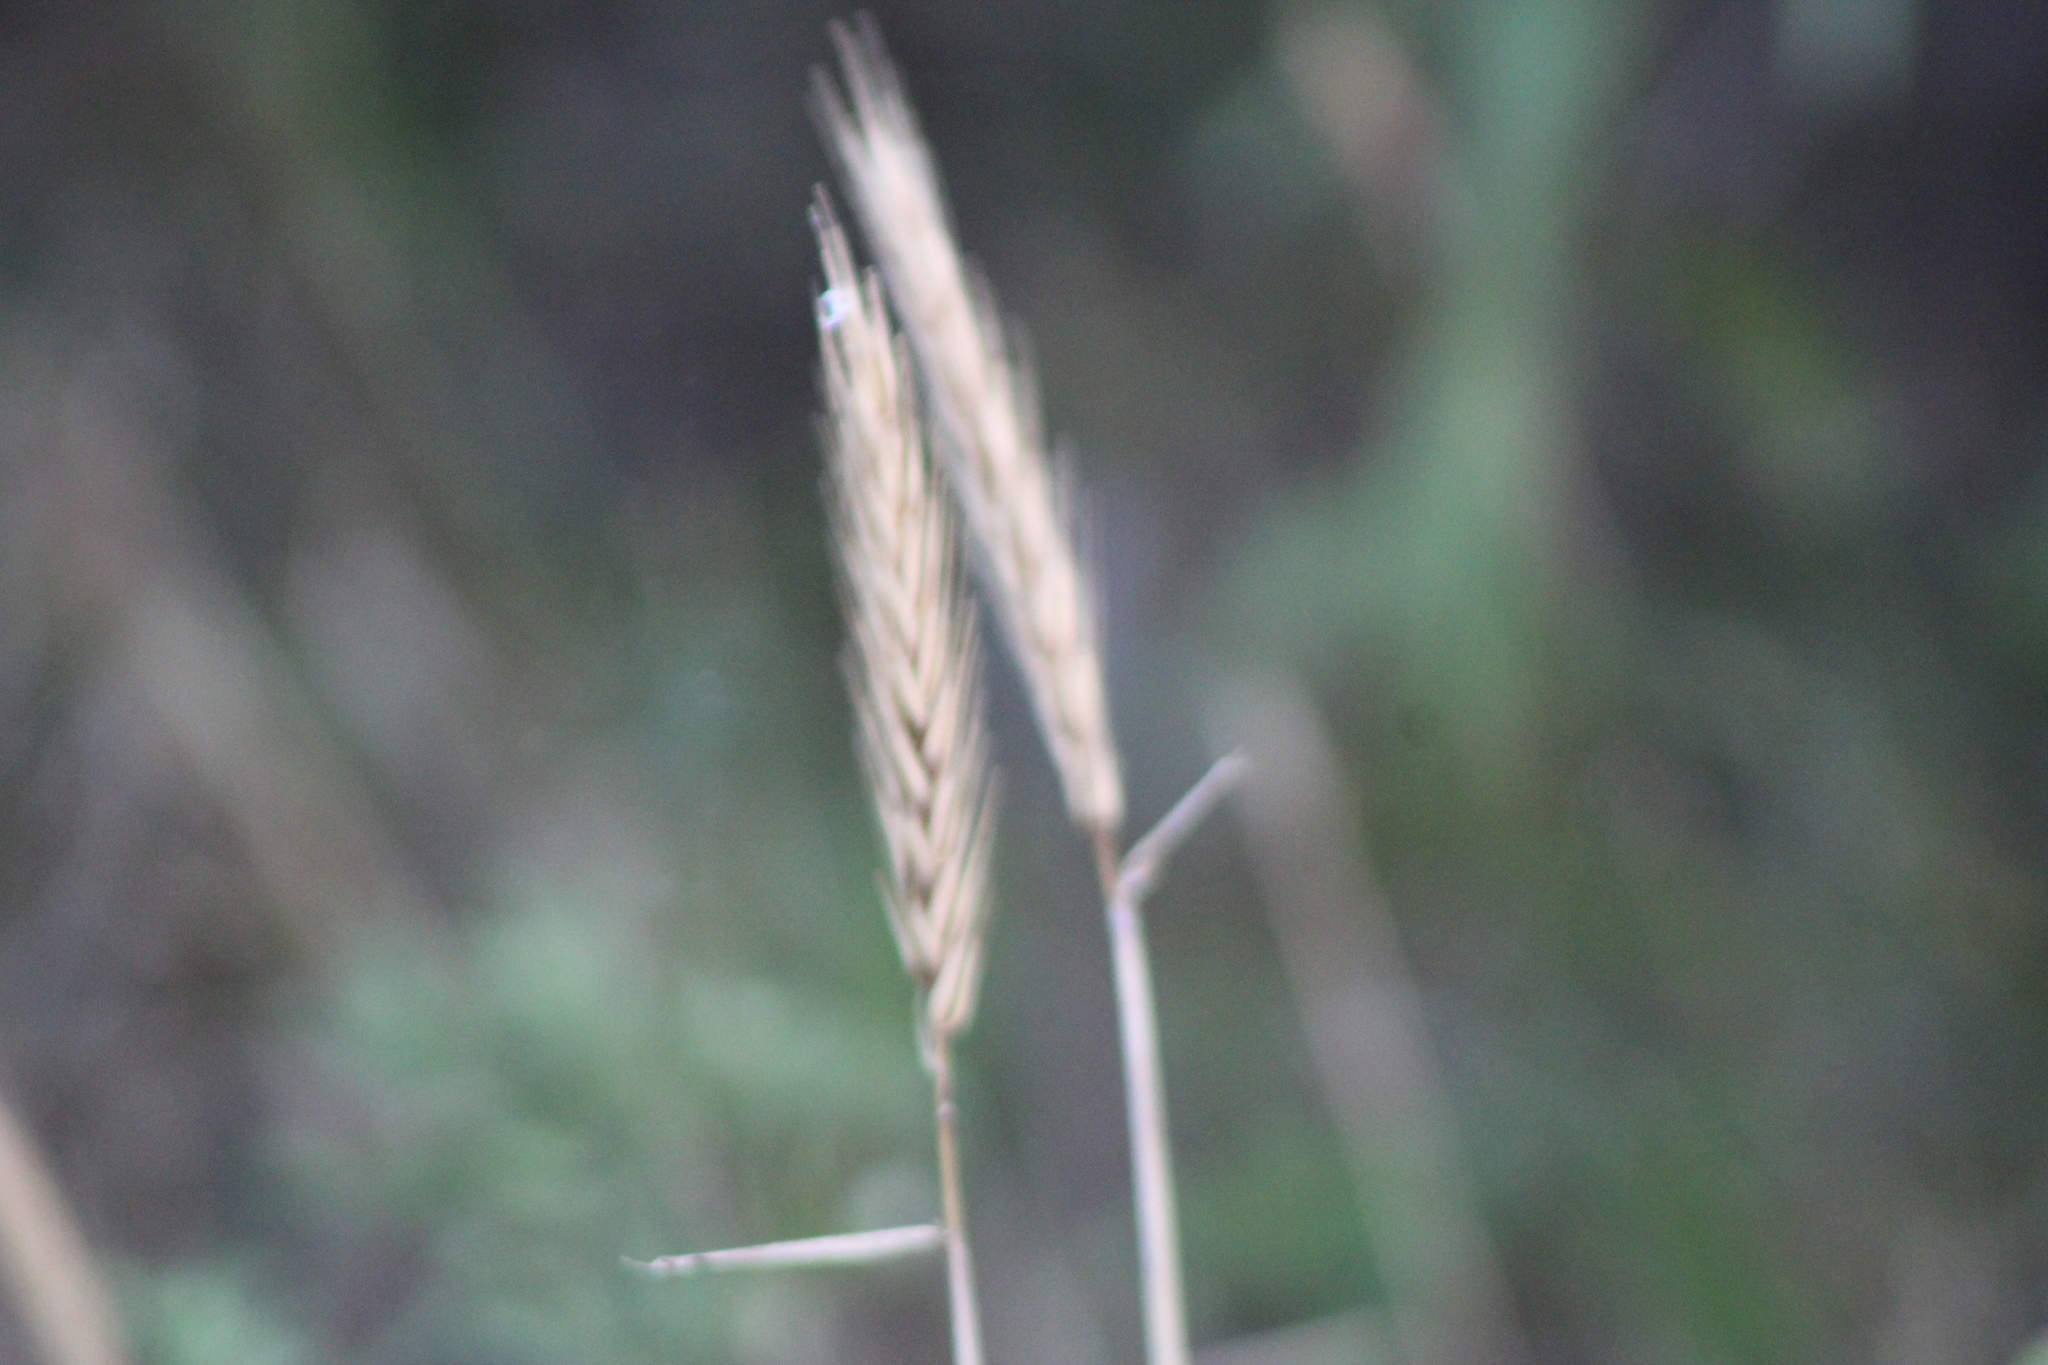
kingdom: Plantae
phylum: Tracheophyta
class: Liliopsida
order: Poales
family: Poaceae
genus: Elymus
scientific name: Elymus virginicus
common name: Common eastern wildrye
